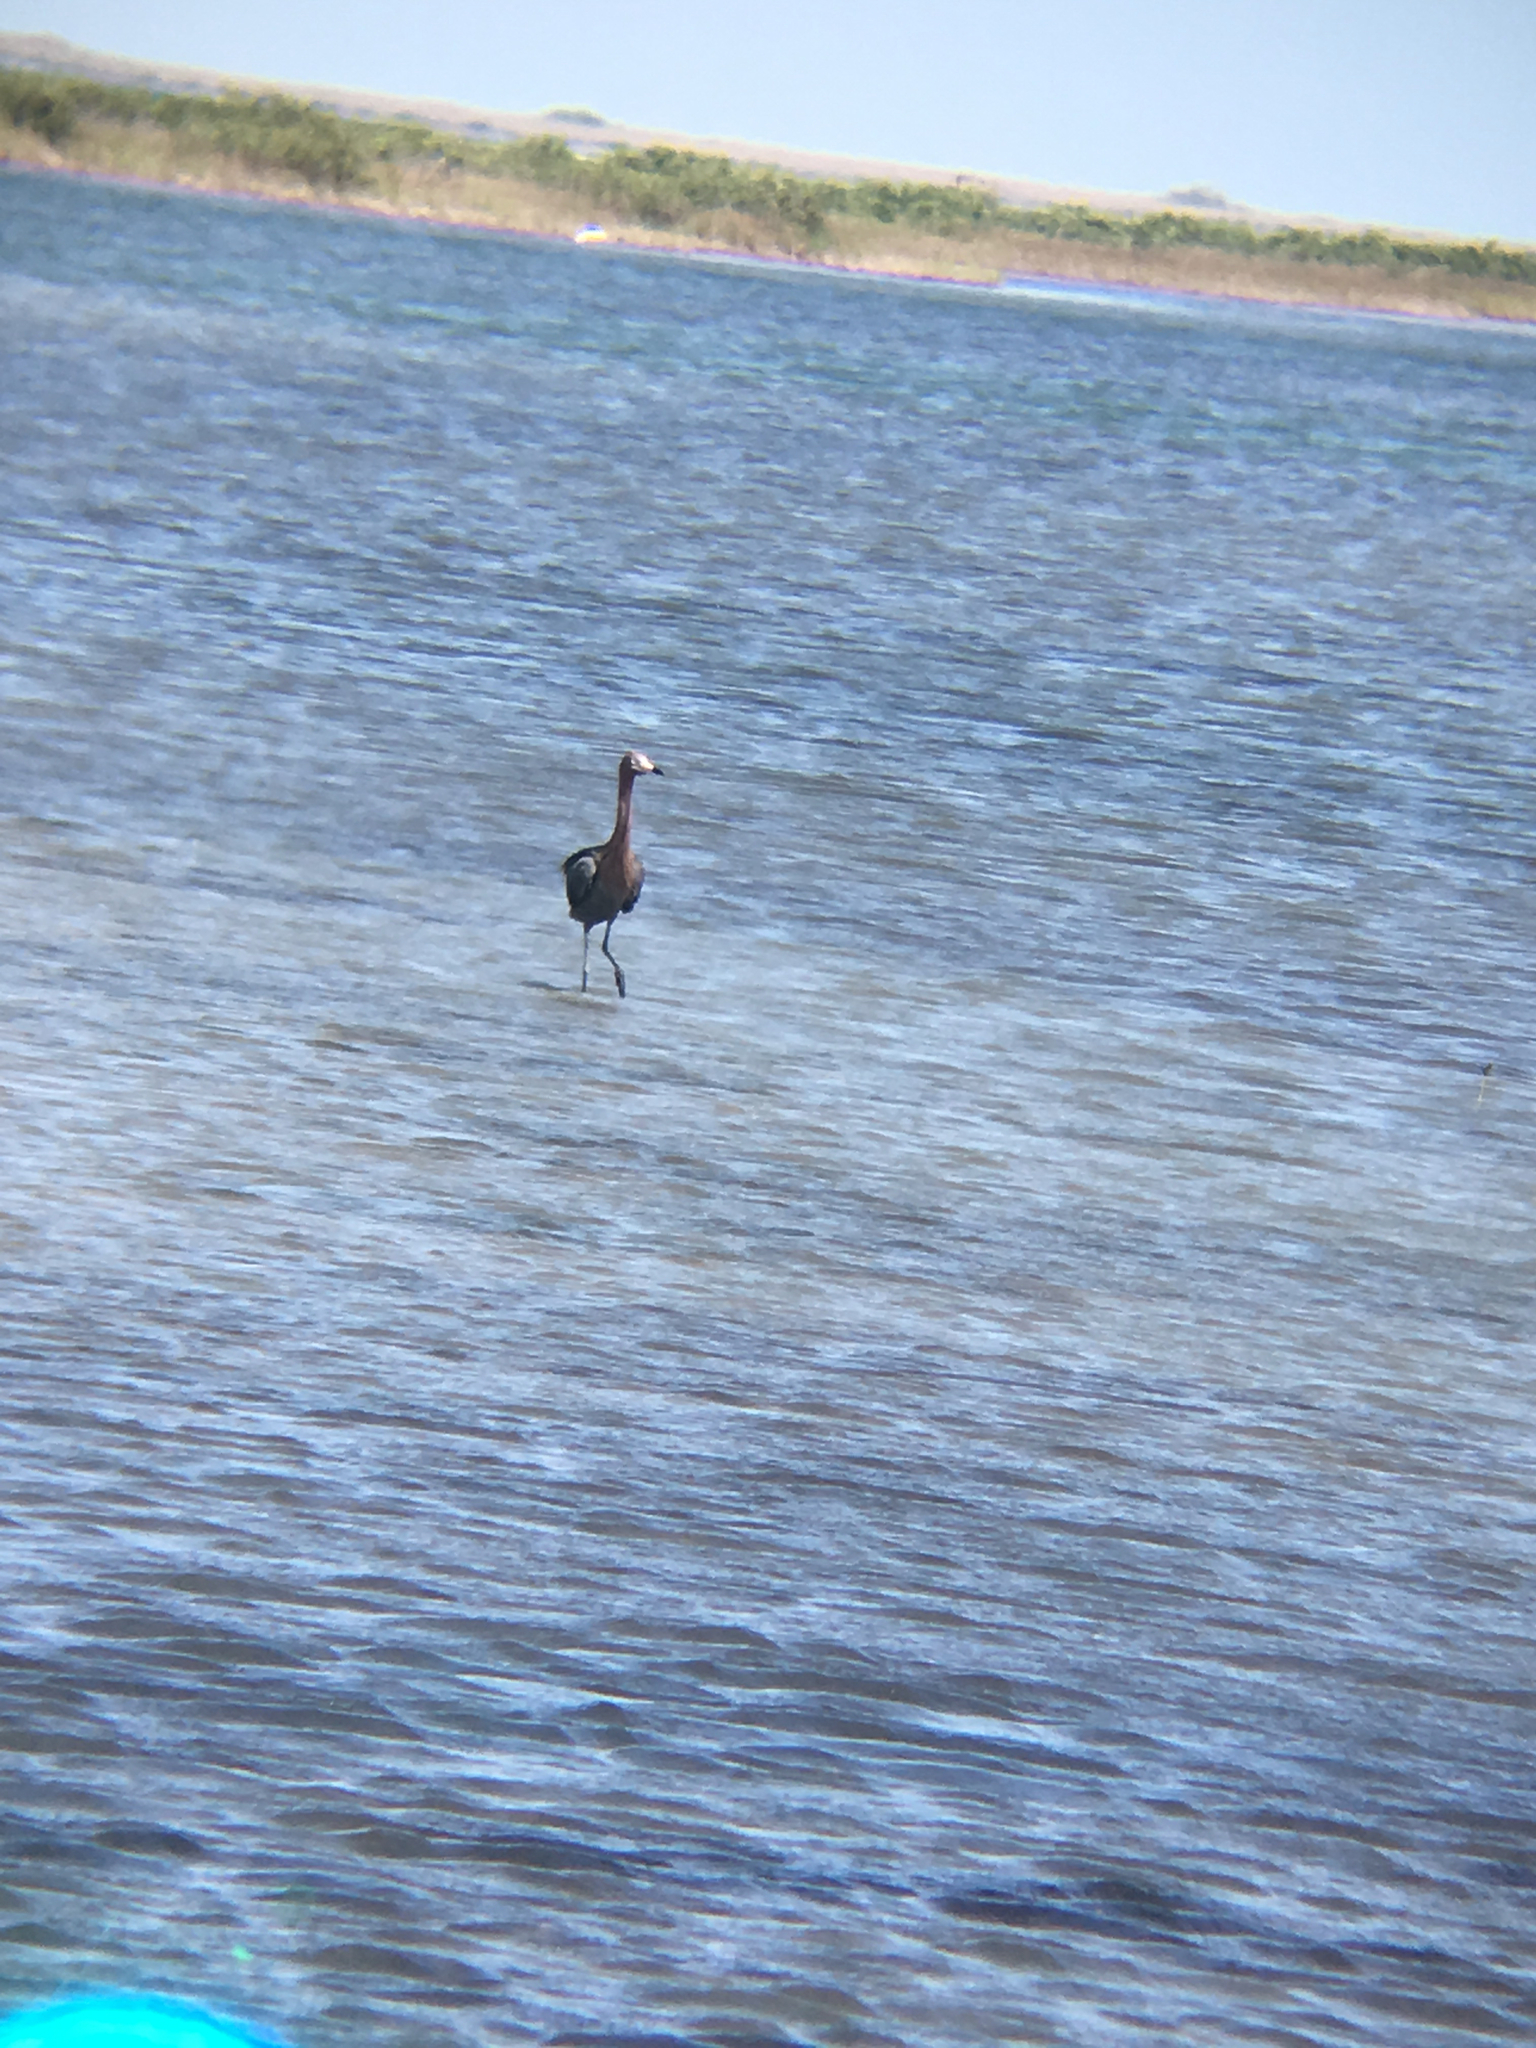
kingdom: Animalia
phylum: Chordata
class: Aves
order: Pelecaniformes
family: Ardeidae
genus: Egretta
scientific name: Egretta rufescens
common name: Reddish egret
